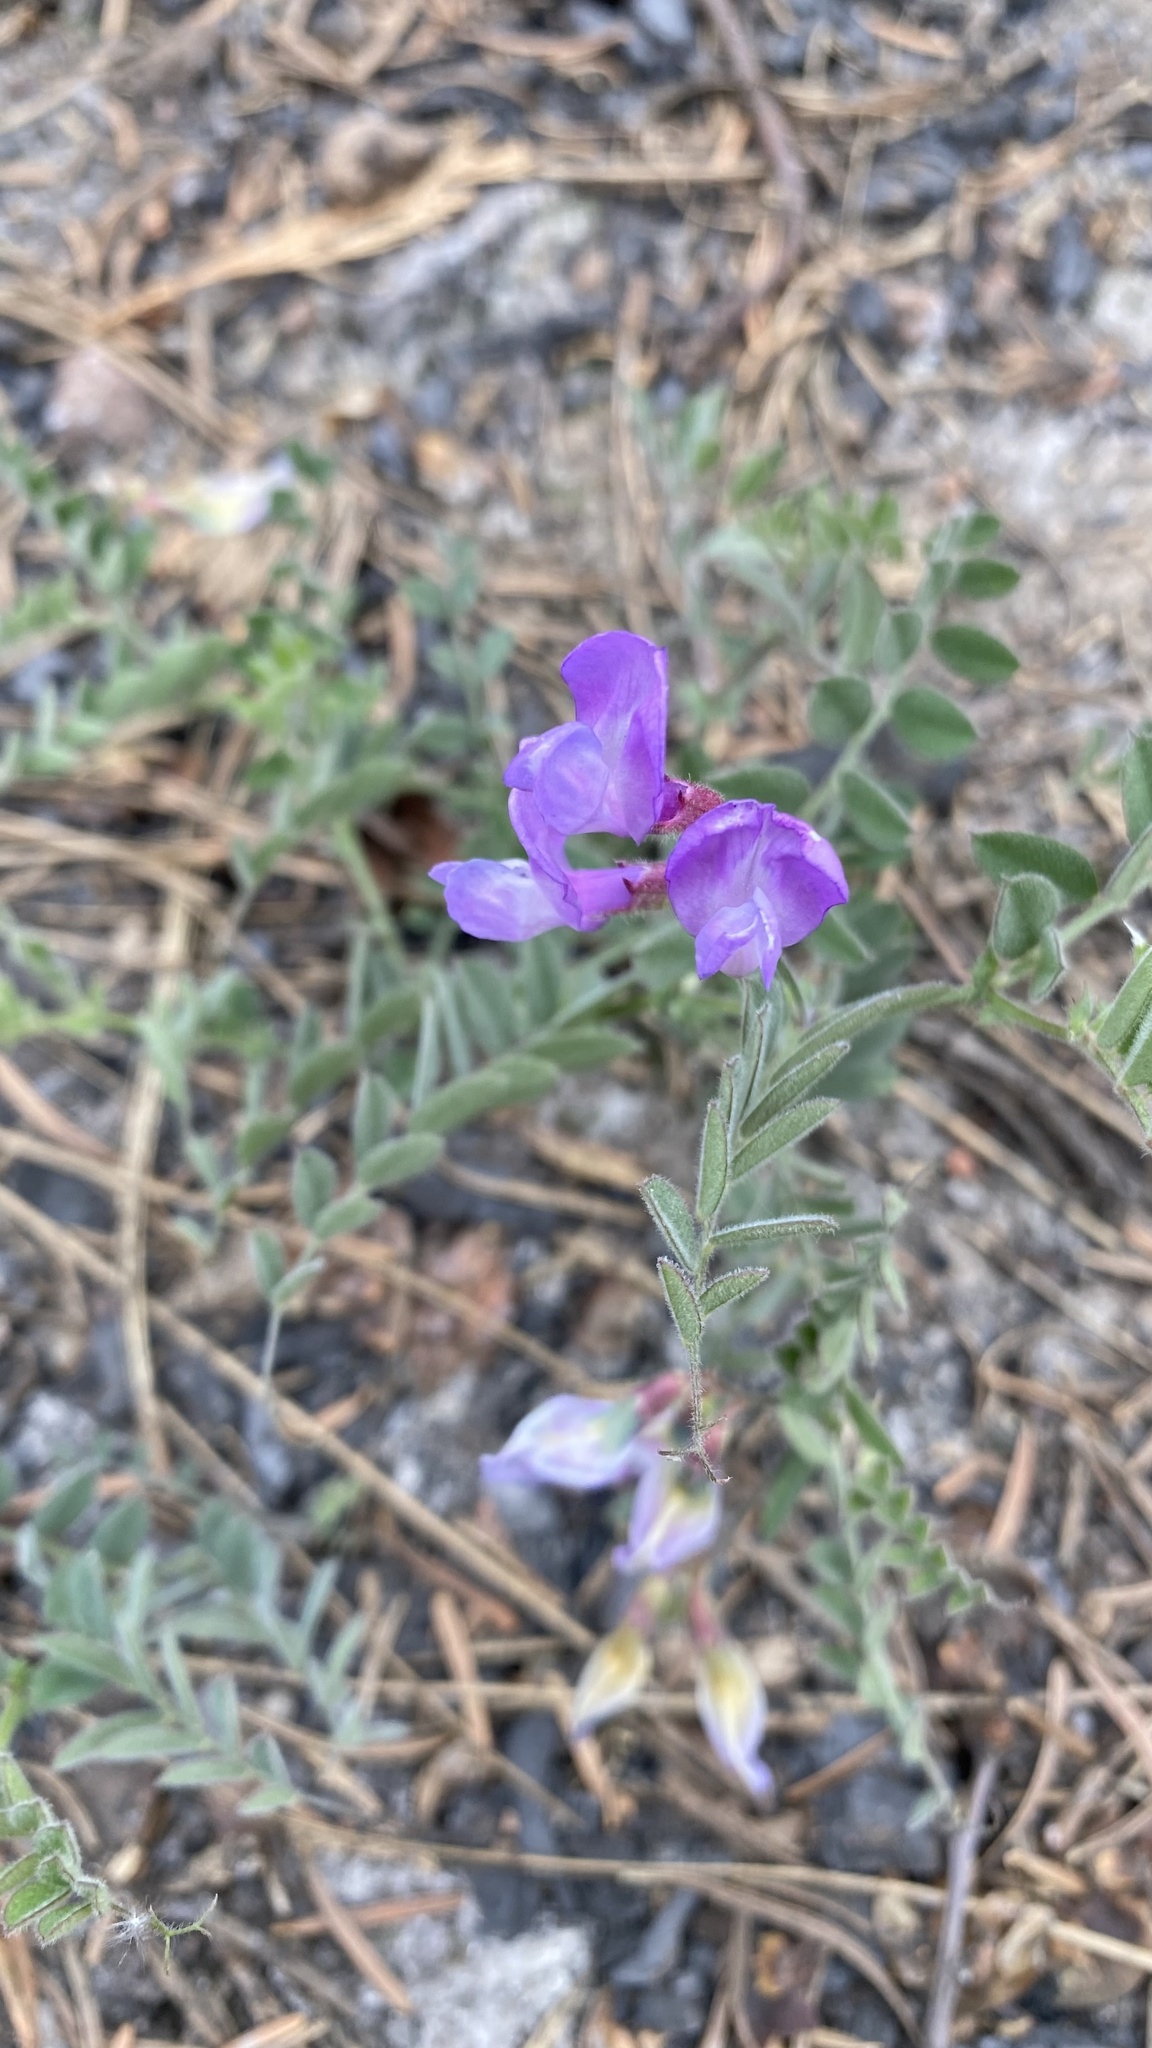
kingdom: Plantae
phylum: Tracheophyta
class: Magnoliopsida
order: Fabales
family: Fabaceae
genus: Vicia
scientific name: Vicia americana
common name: American vetch
